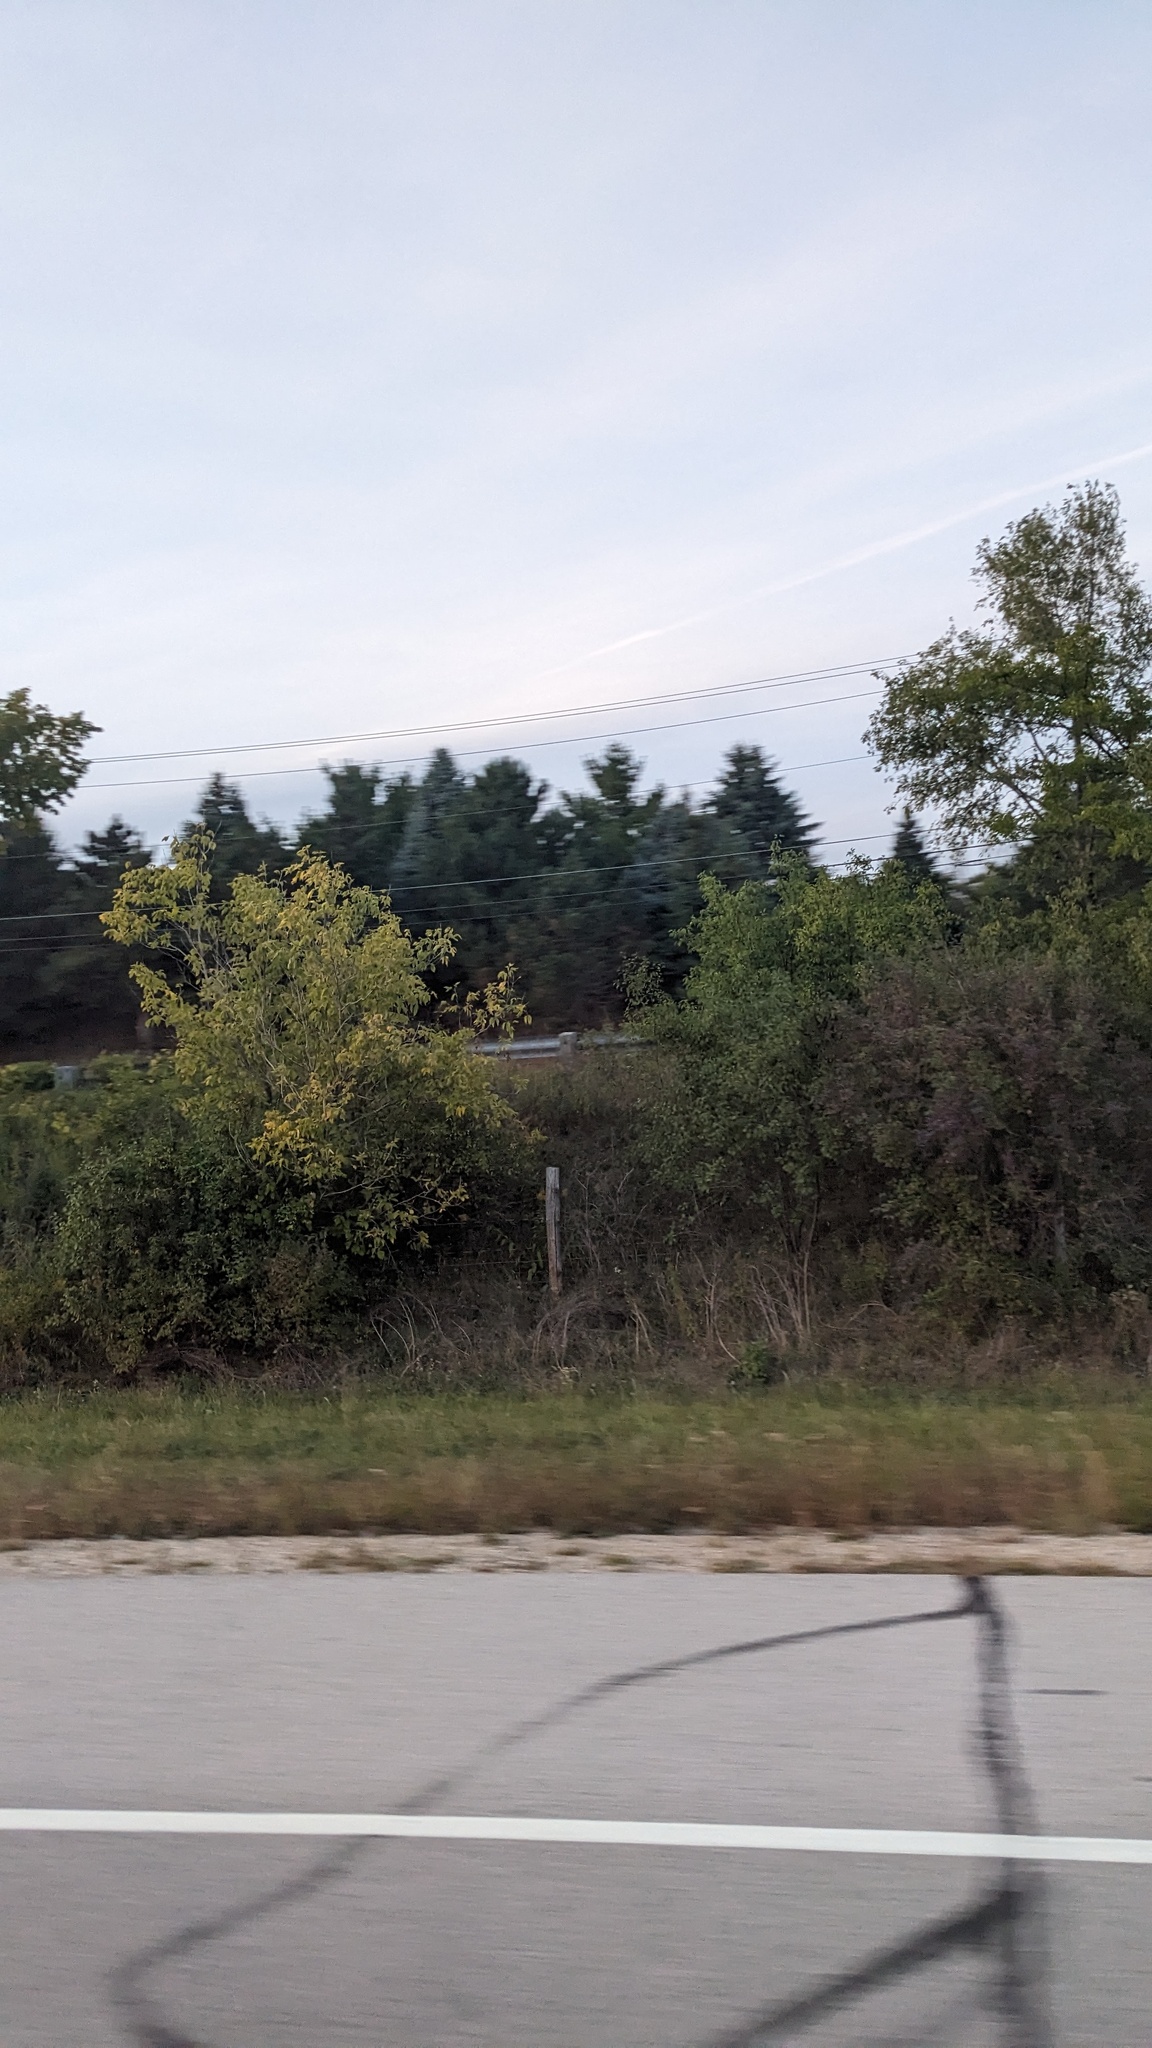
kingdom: Plantae
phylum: Tracheophyta
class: Magnoliopsida
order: Sapindales
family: Sapindaceae
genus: Acer
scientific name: Acer negundo
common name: Ashleaf maple
